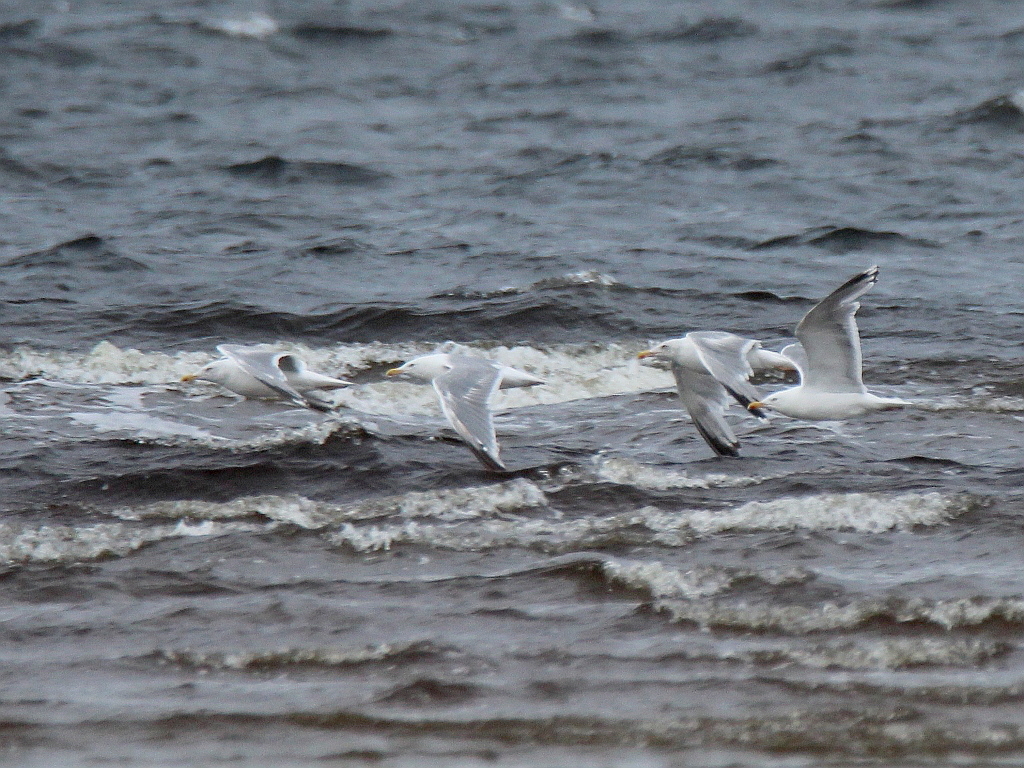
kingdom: Animalia
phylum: Chordata
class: Aves
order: Charadriiformes
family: Laridae
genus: Larus
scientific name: Larus argentatus
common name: Herring gull
